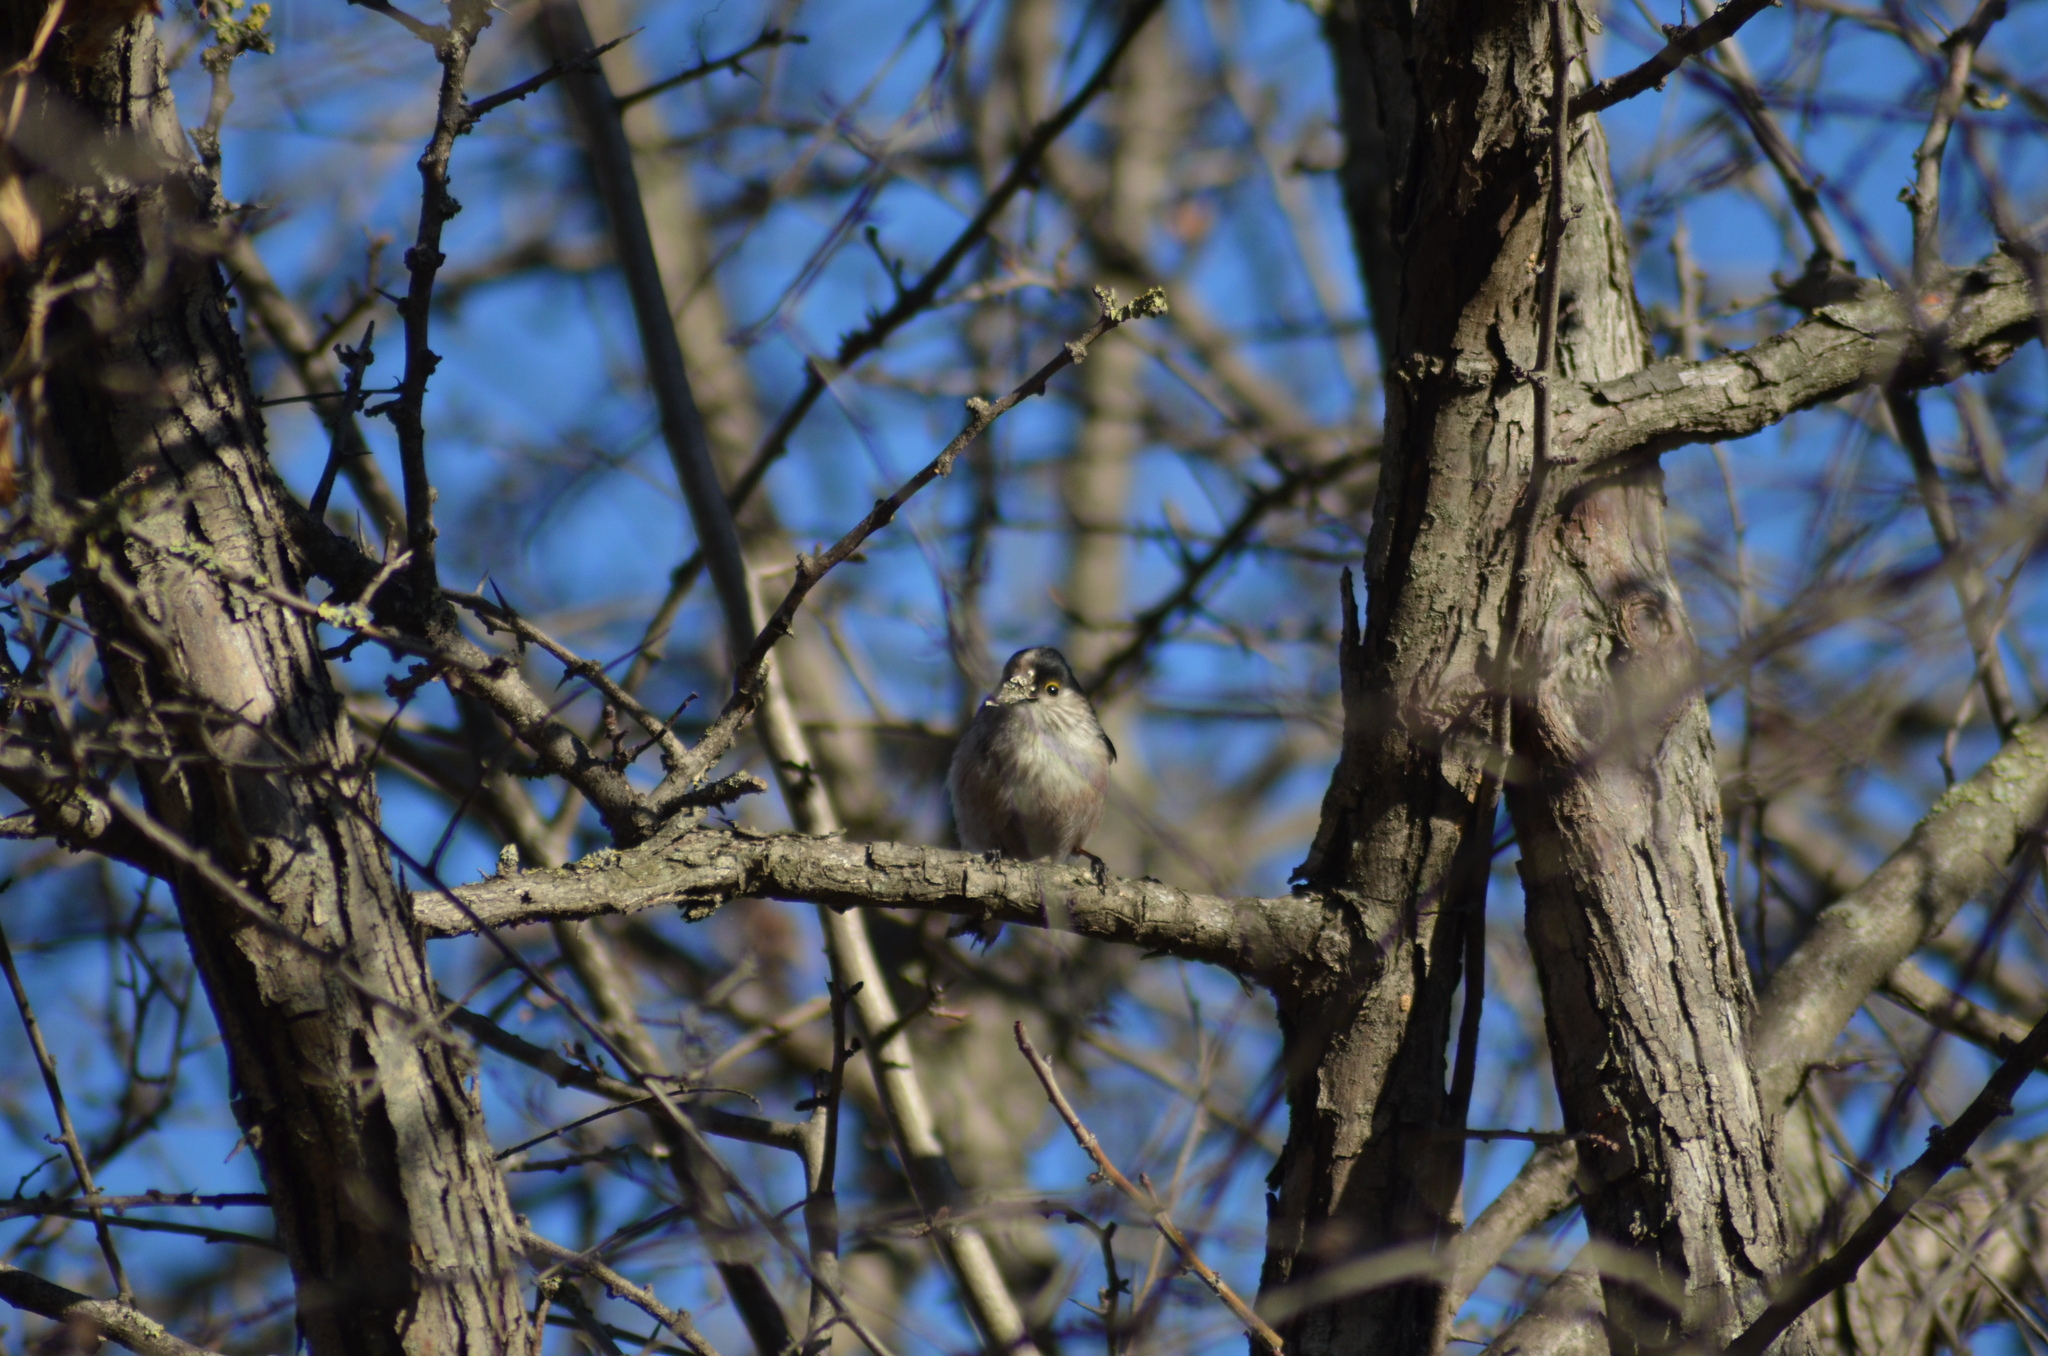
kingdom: Animalia
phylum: Chordata
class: Aves
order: Passeriformes
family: Aegithalidae
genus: Aegithalos
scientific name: Aegithalos caudatus
